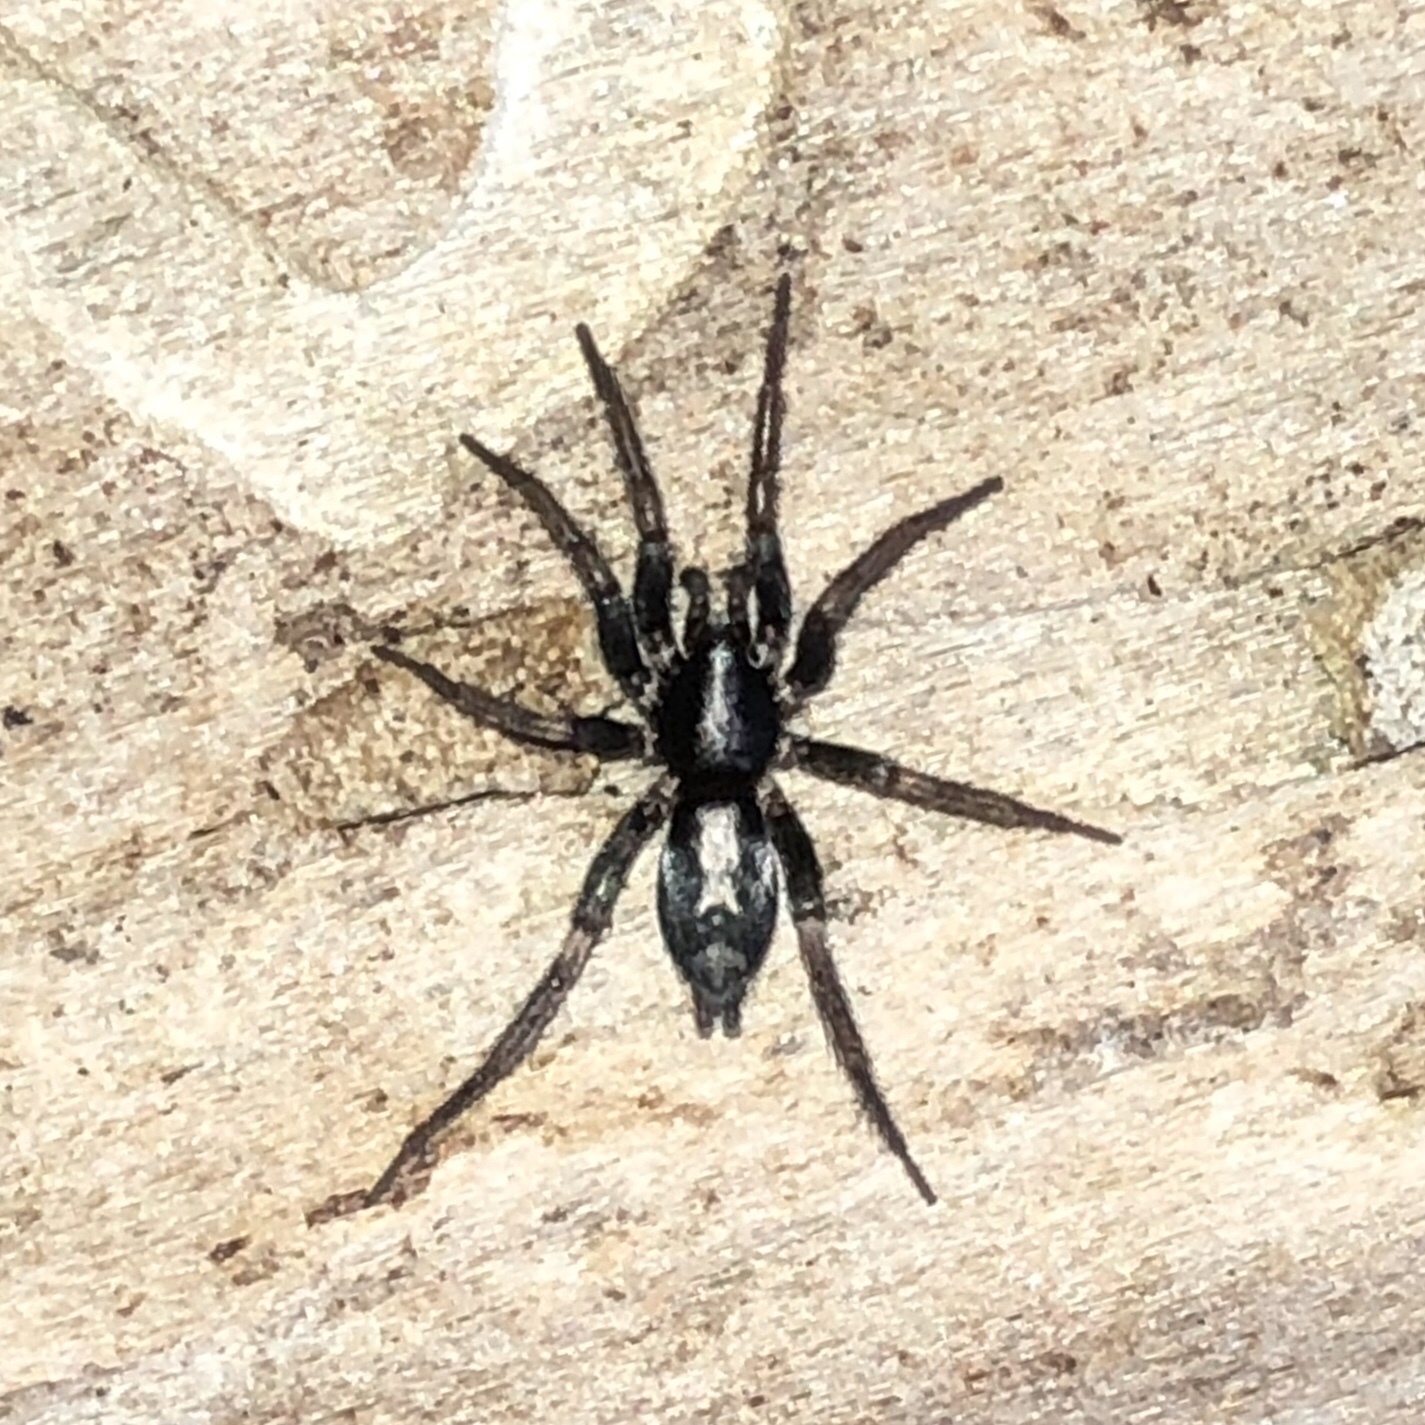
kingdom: Animalia
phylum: Arthropoda
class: Arachnida
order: Araneae
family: Gnaphosidae
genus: Herpyllus
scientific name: Herpyllus ecclesiasticus
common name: Eastern parson spider
